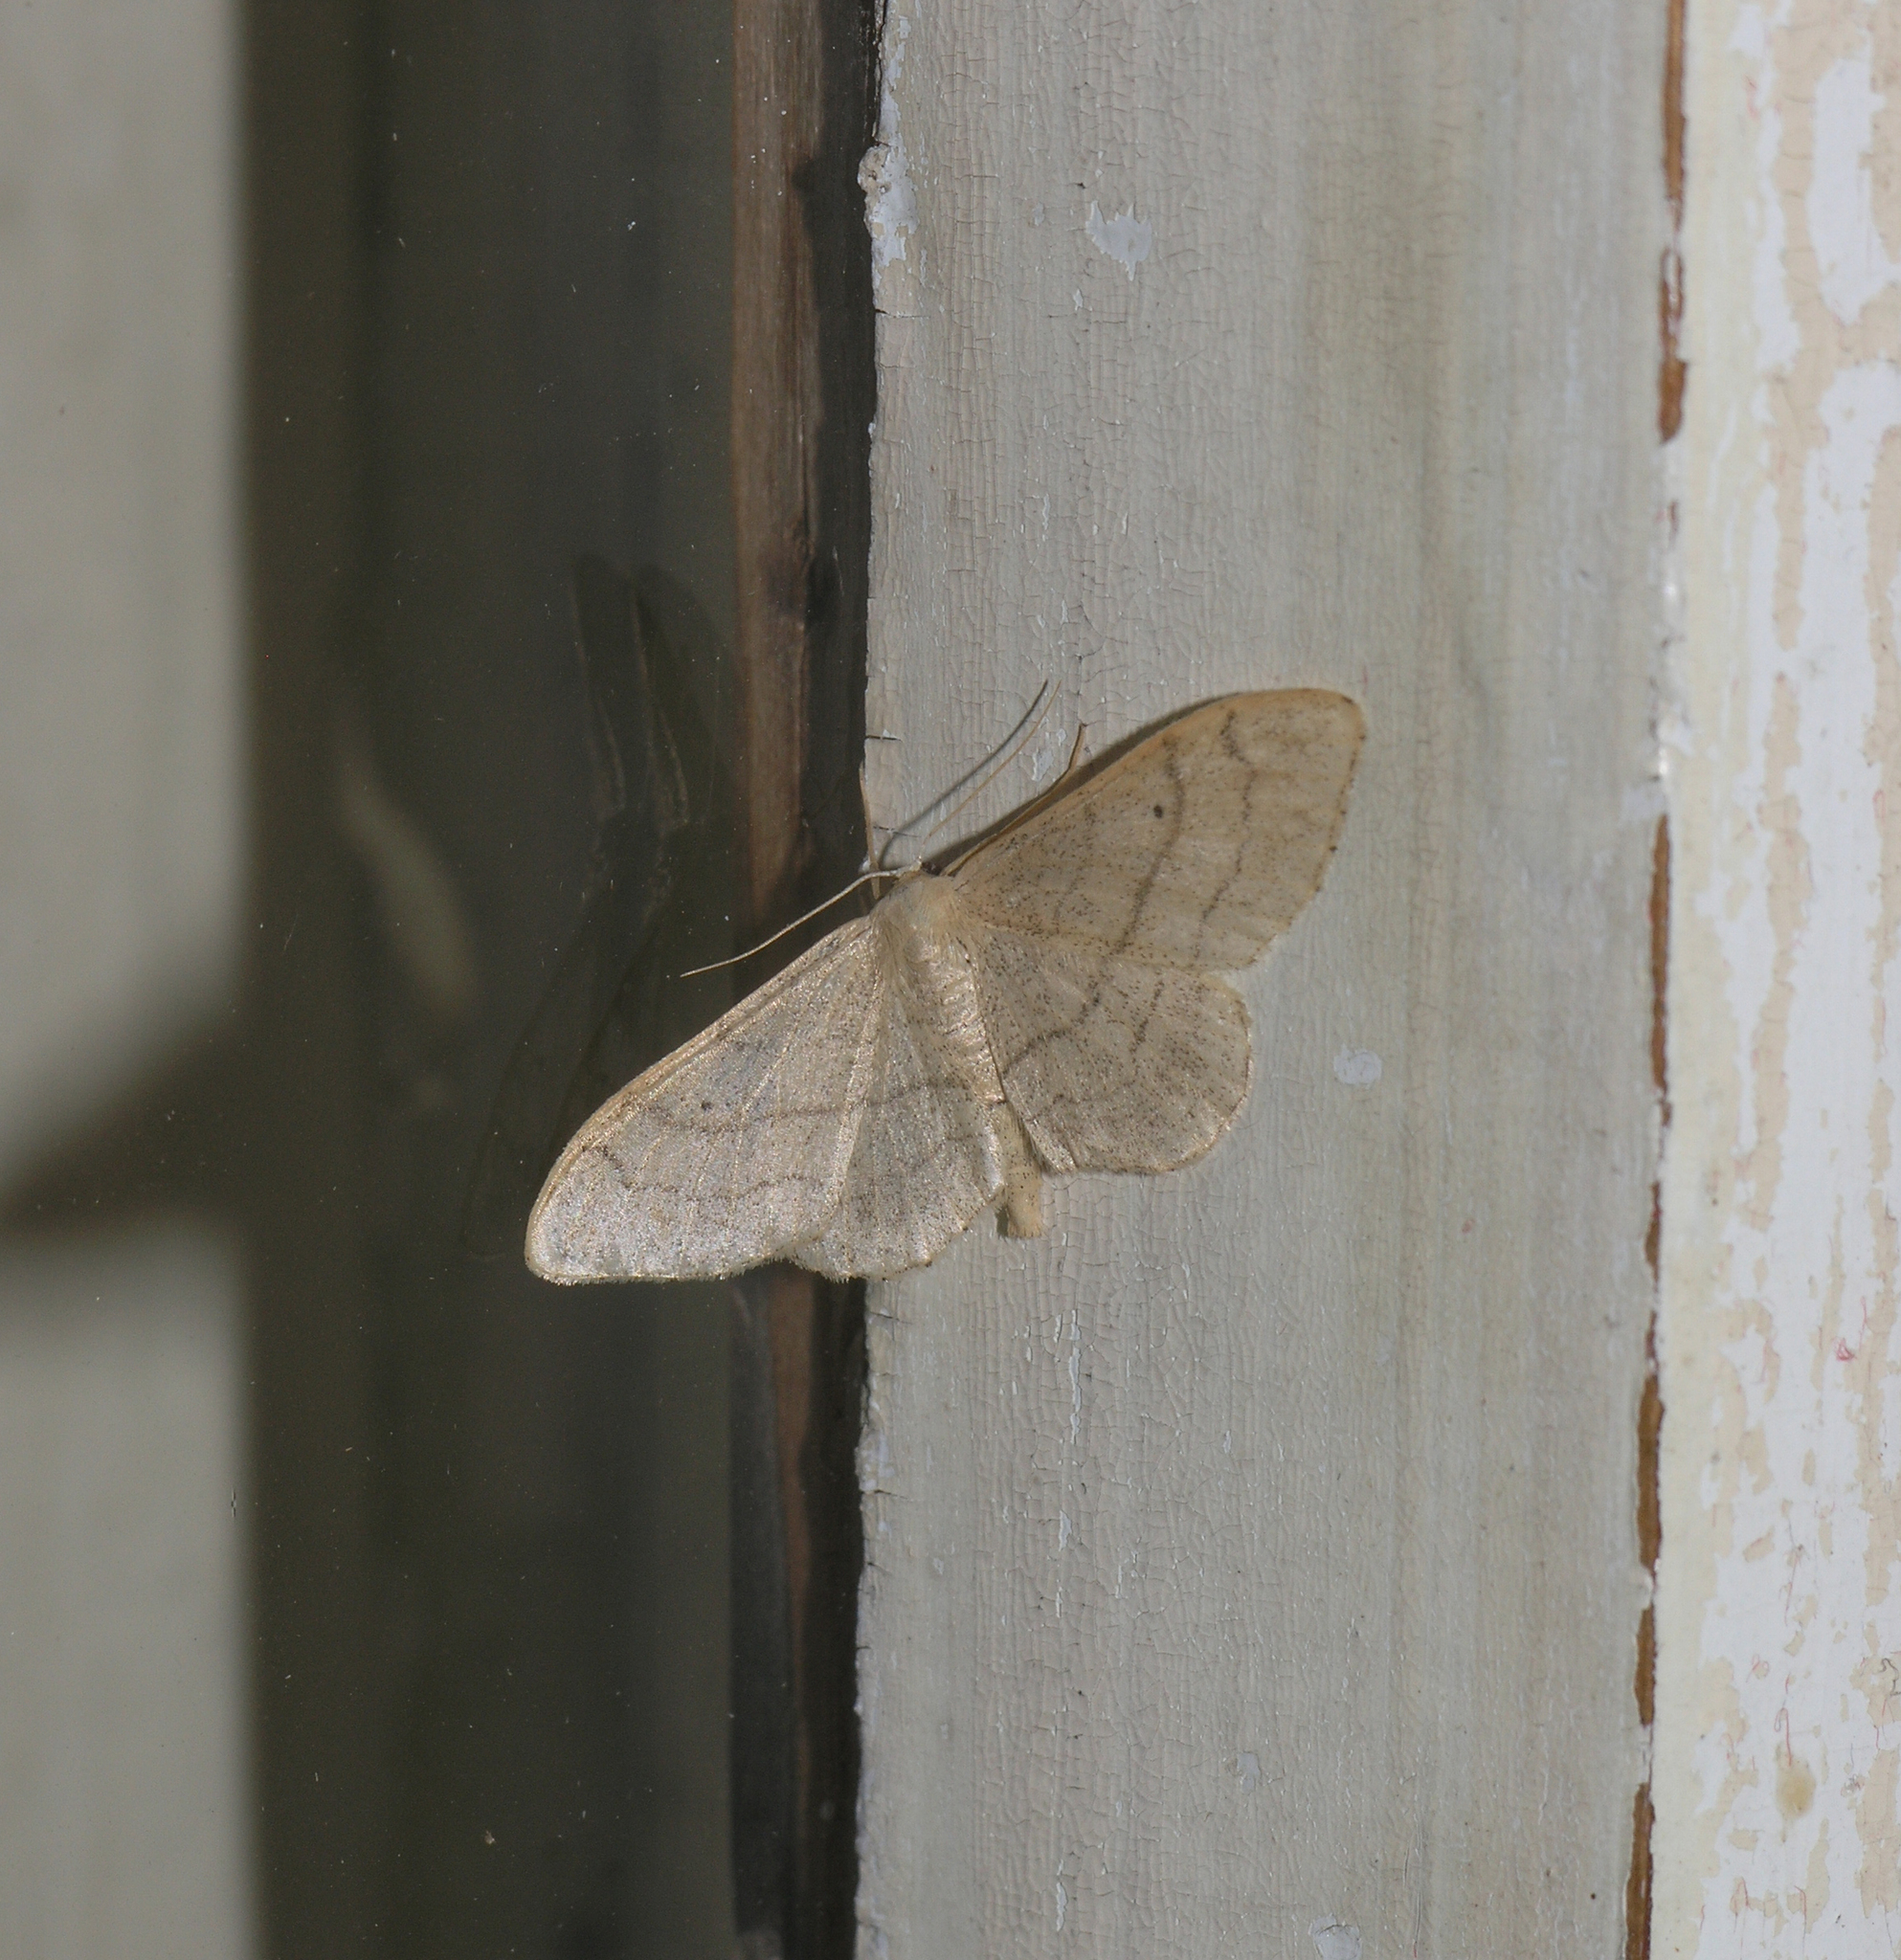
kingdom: Animalia
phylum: Arthropoda
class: Insecta
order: Lepidoptera
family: Geometridae
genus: Idaea
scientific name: Idaea aversata
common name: Riband wave
